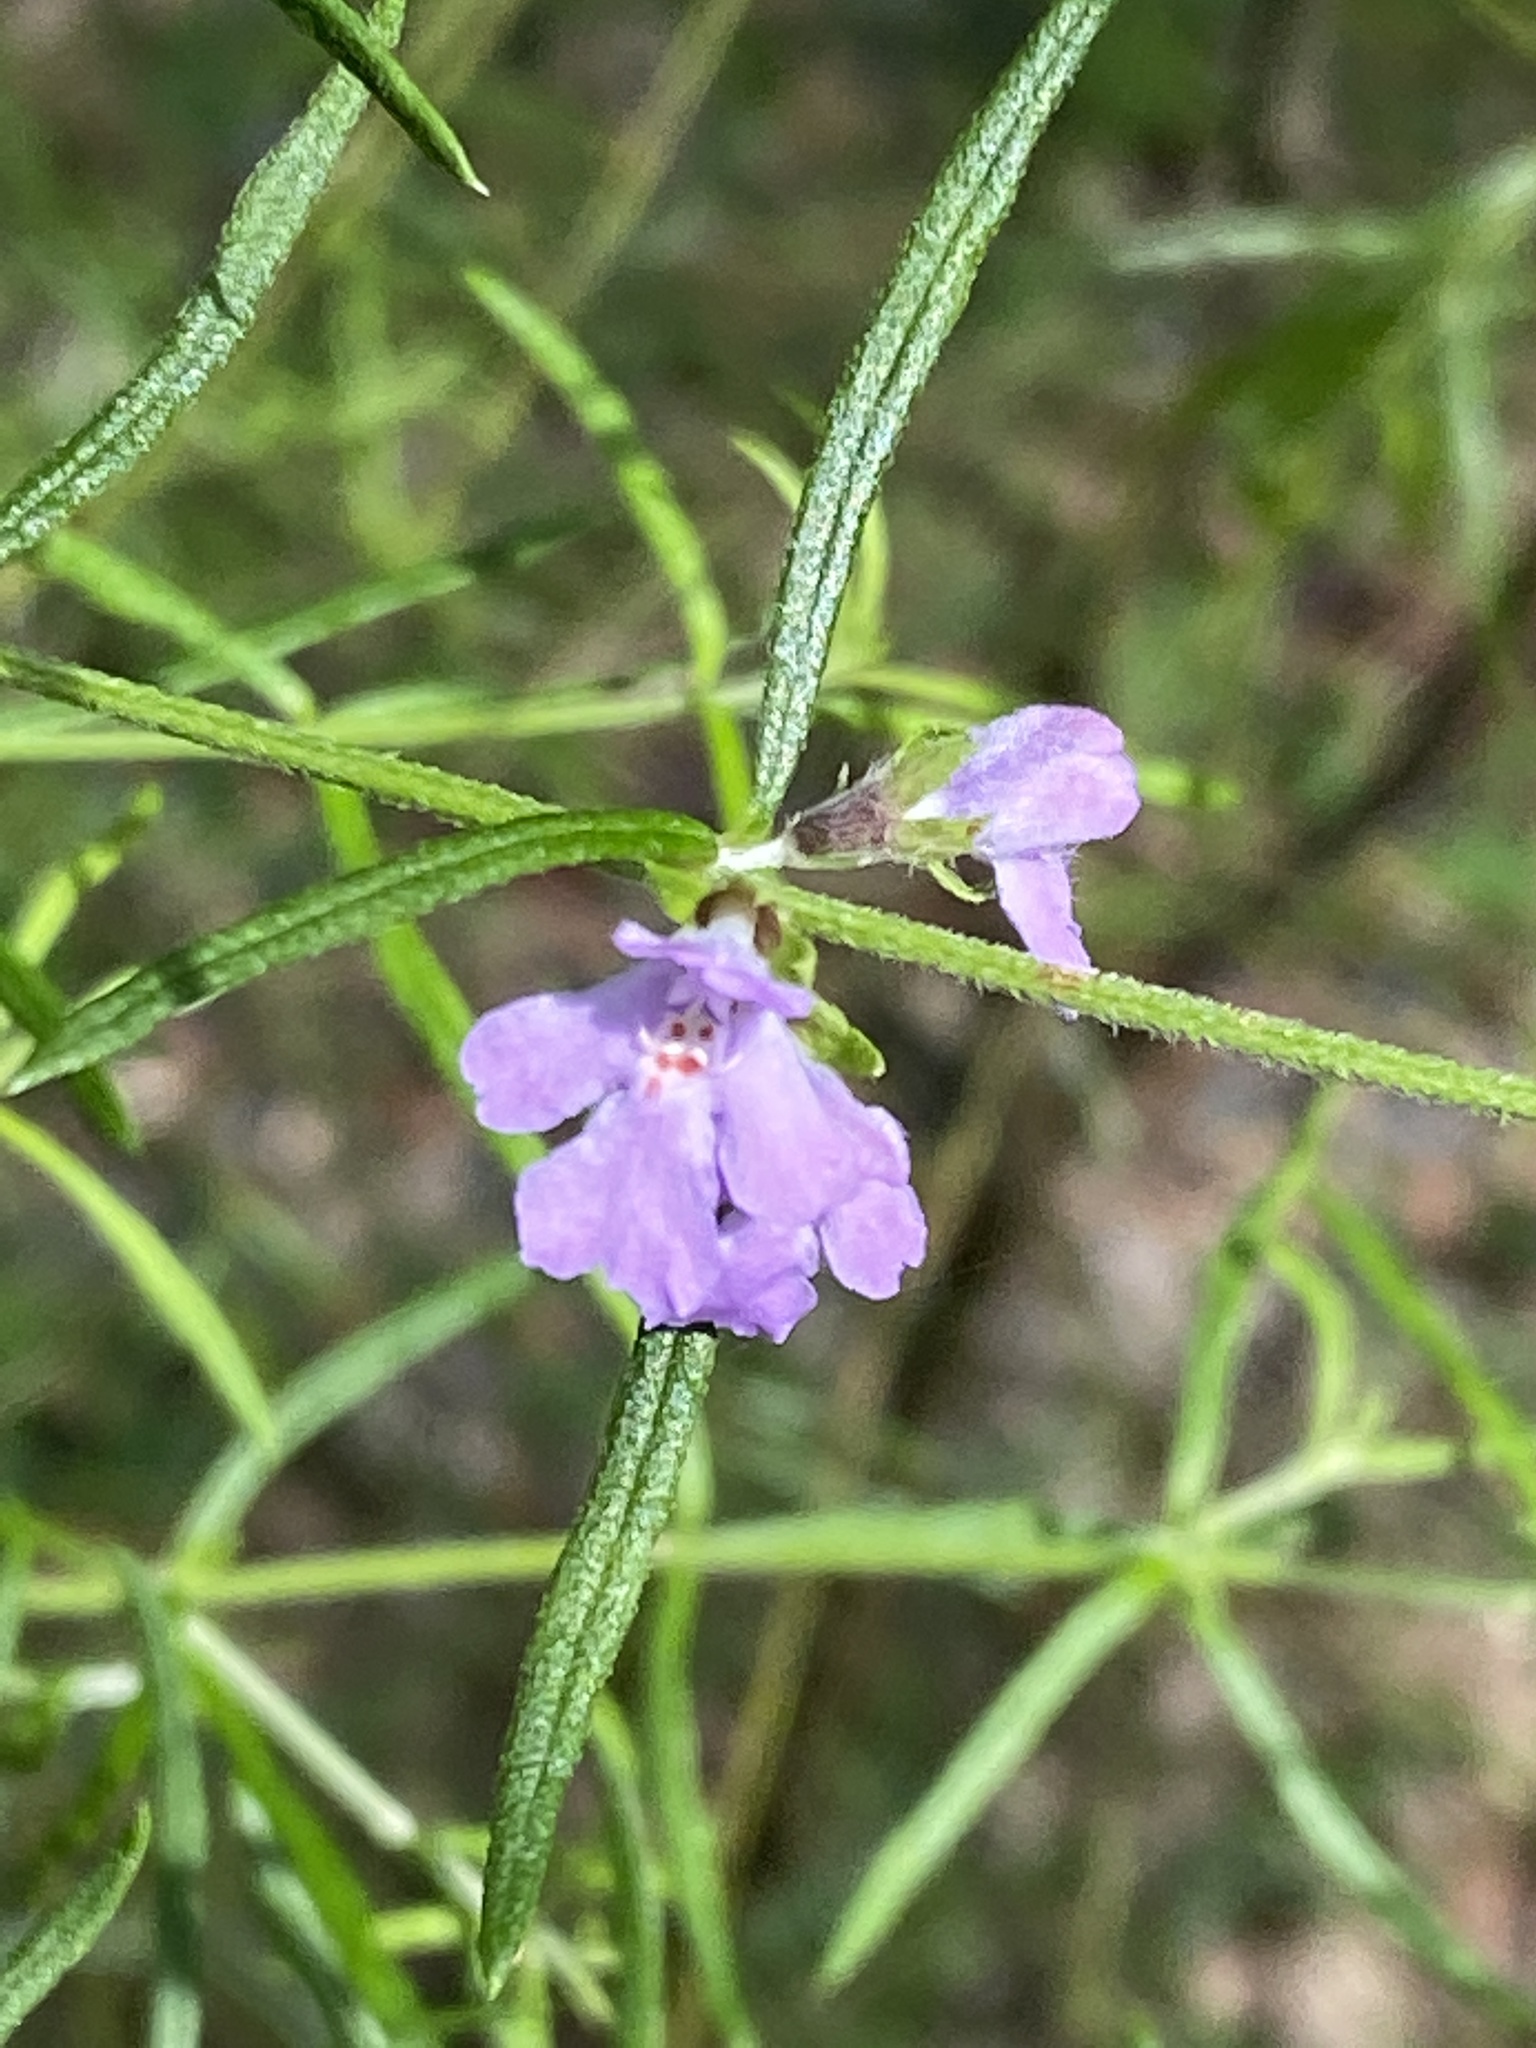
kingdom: Plantae
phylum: Tracheophyta
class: Magnoliopsida
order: Lamiales
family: Lamiaceae
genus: Westringia
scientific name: Westringia eremicola
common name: Slender western-rosemary
